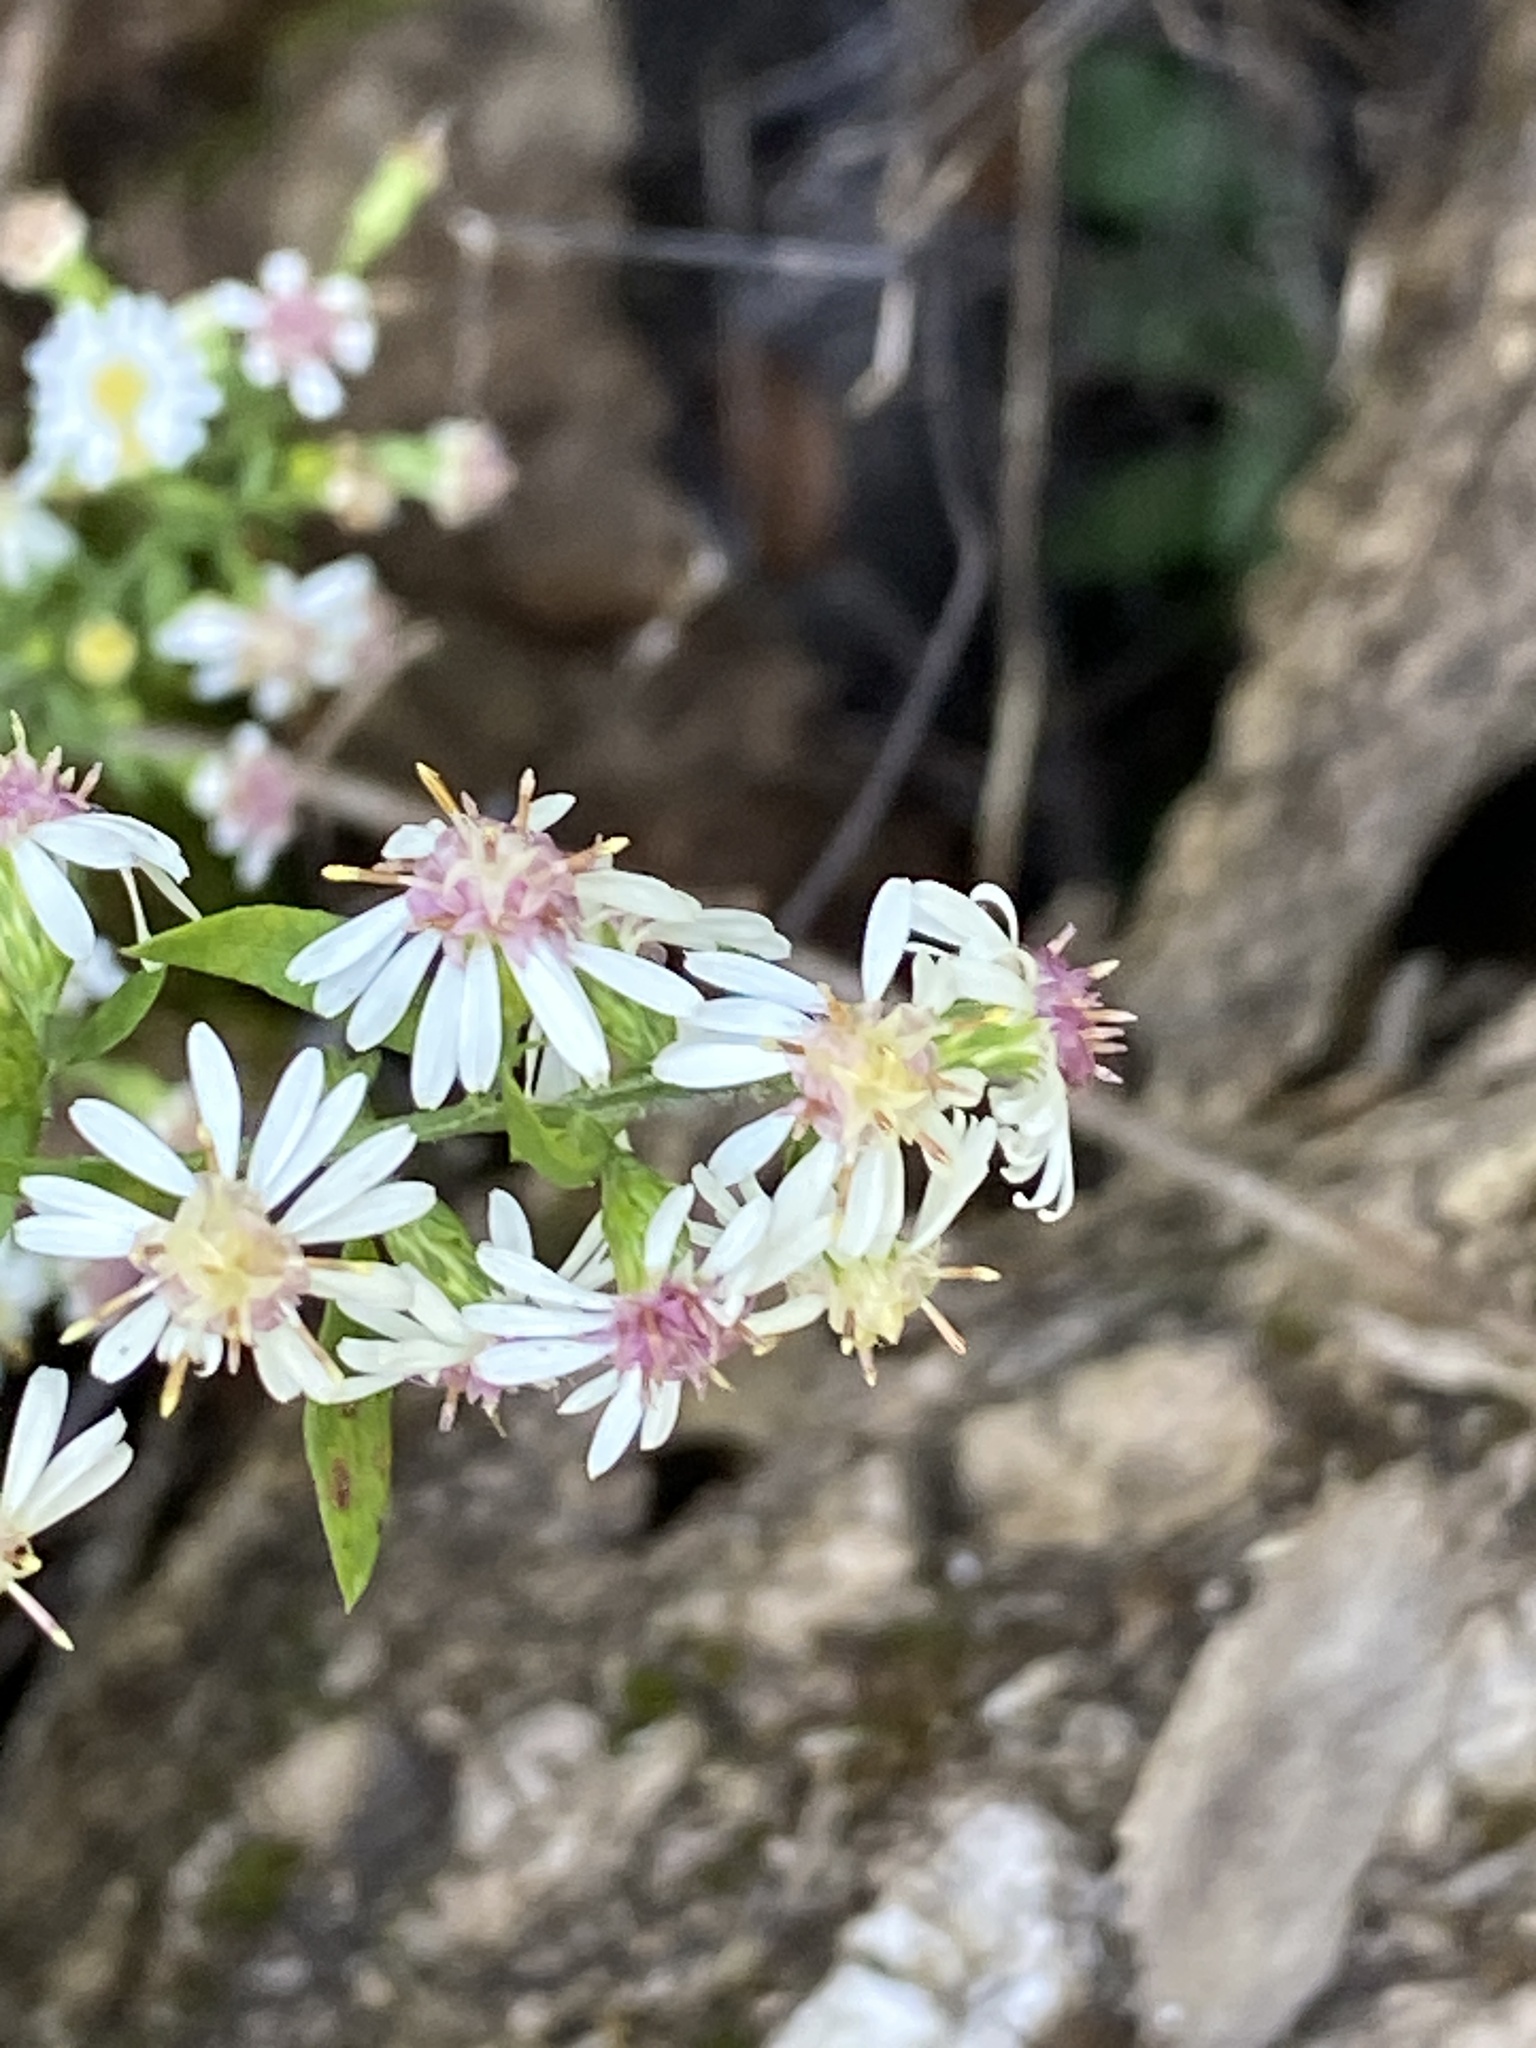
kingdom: Plantae
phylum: Tracheophyta
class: Magnoliopsida
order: Asterales
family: Asteraceae
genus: Symphyotrichum
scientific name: Symphyotrichum lateriflorum
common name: Calico aster
